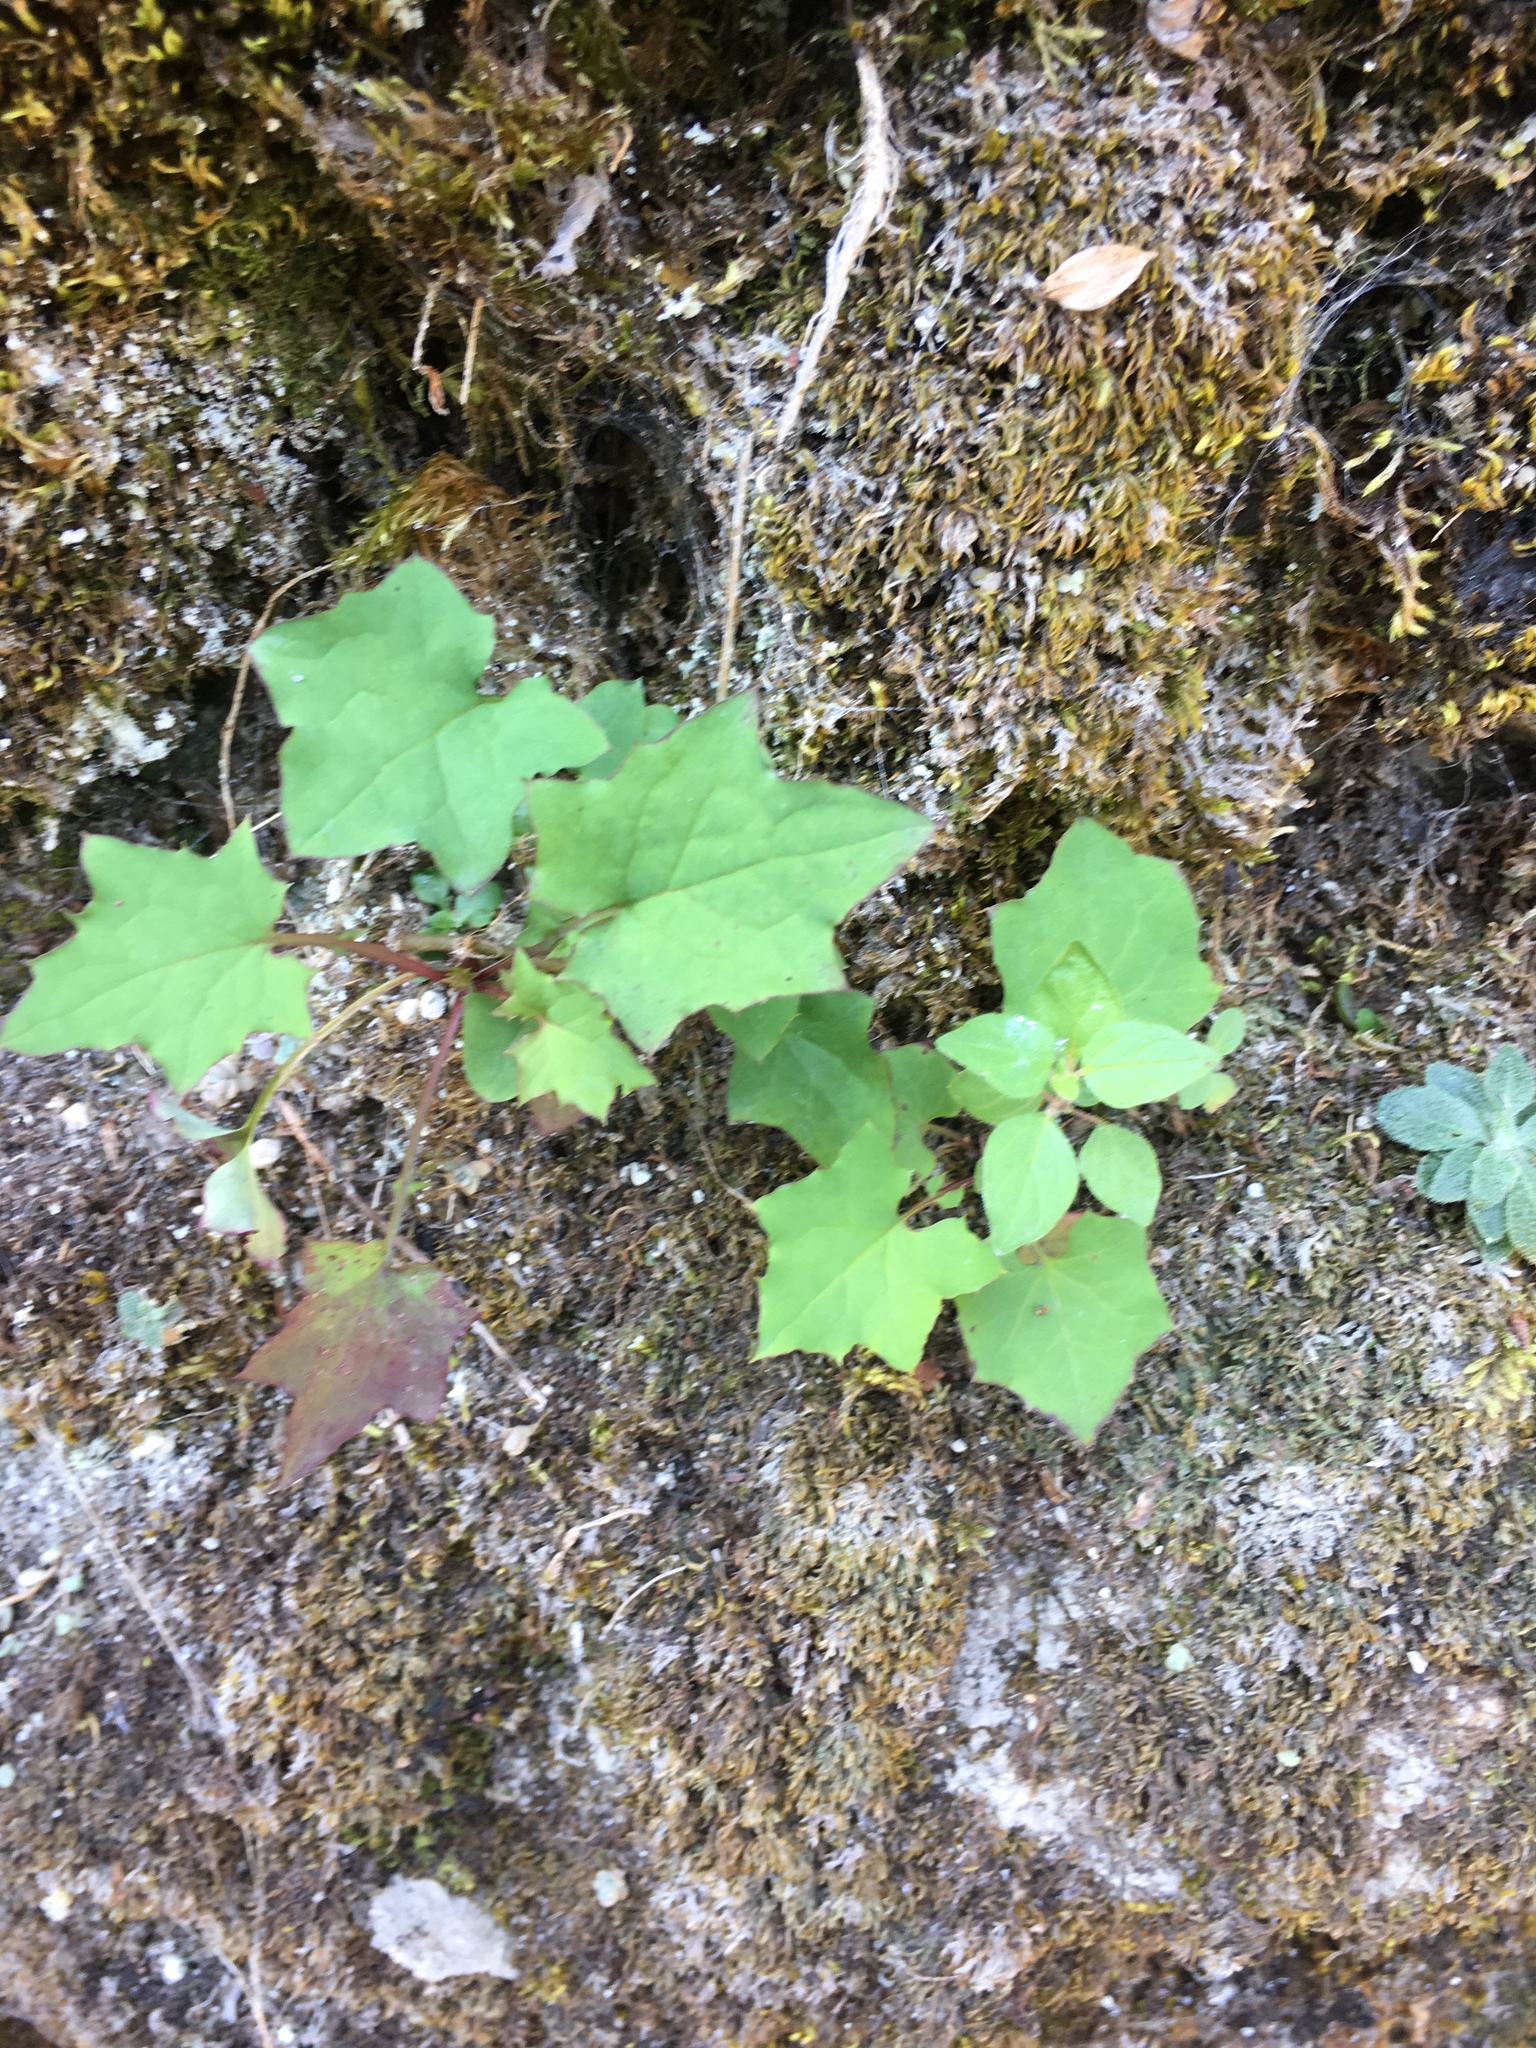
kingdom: Plantae
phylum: Tracheophyta
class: Magnoliopsida
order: Asterales
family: Asteraceae
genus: Mycelis
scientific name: Mycelis muralis
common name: Wall lettuce
